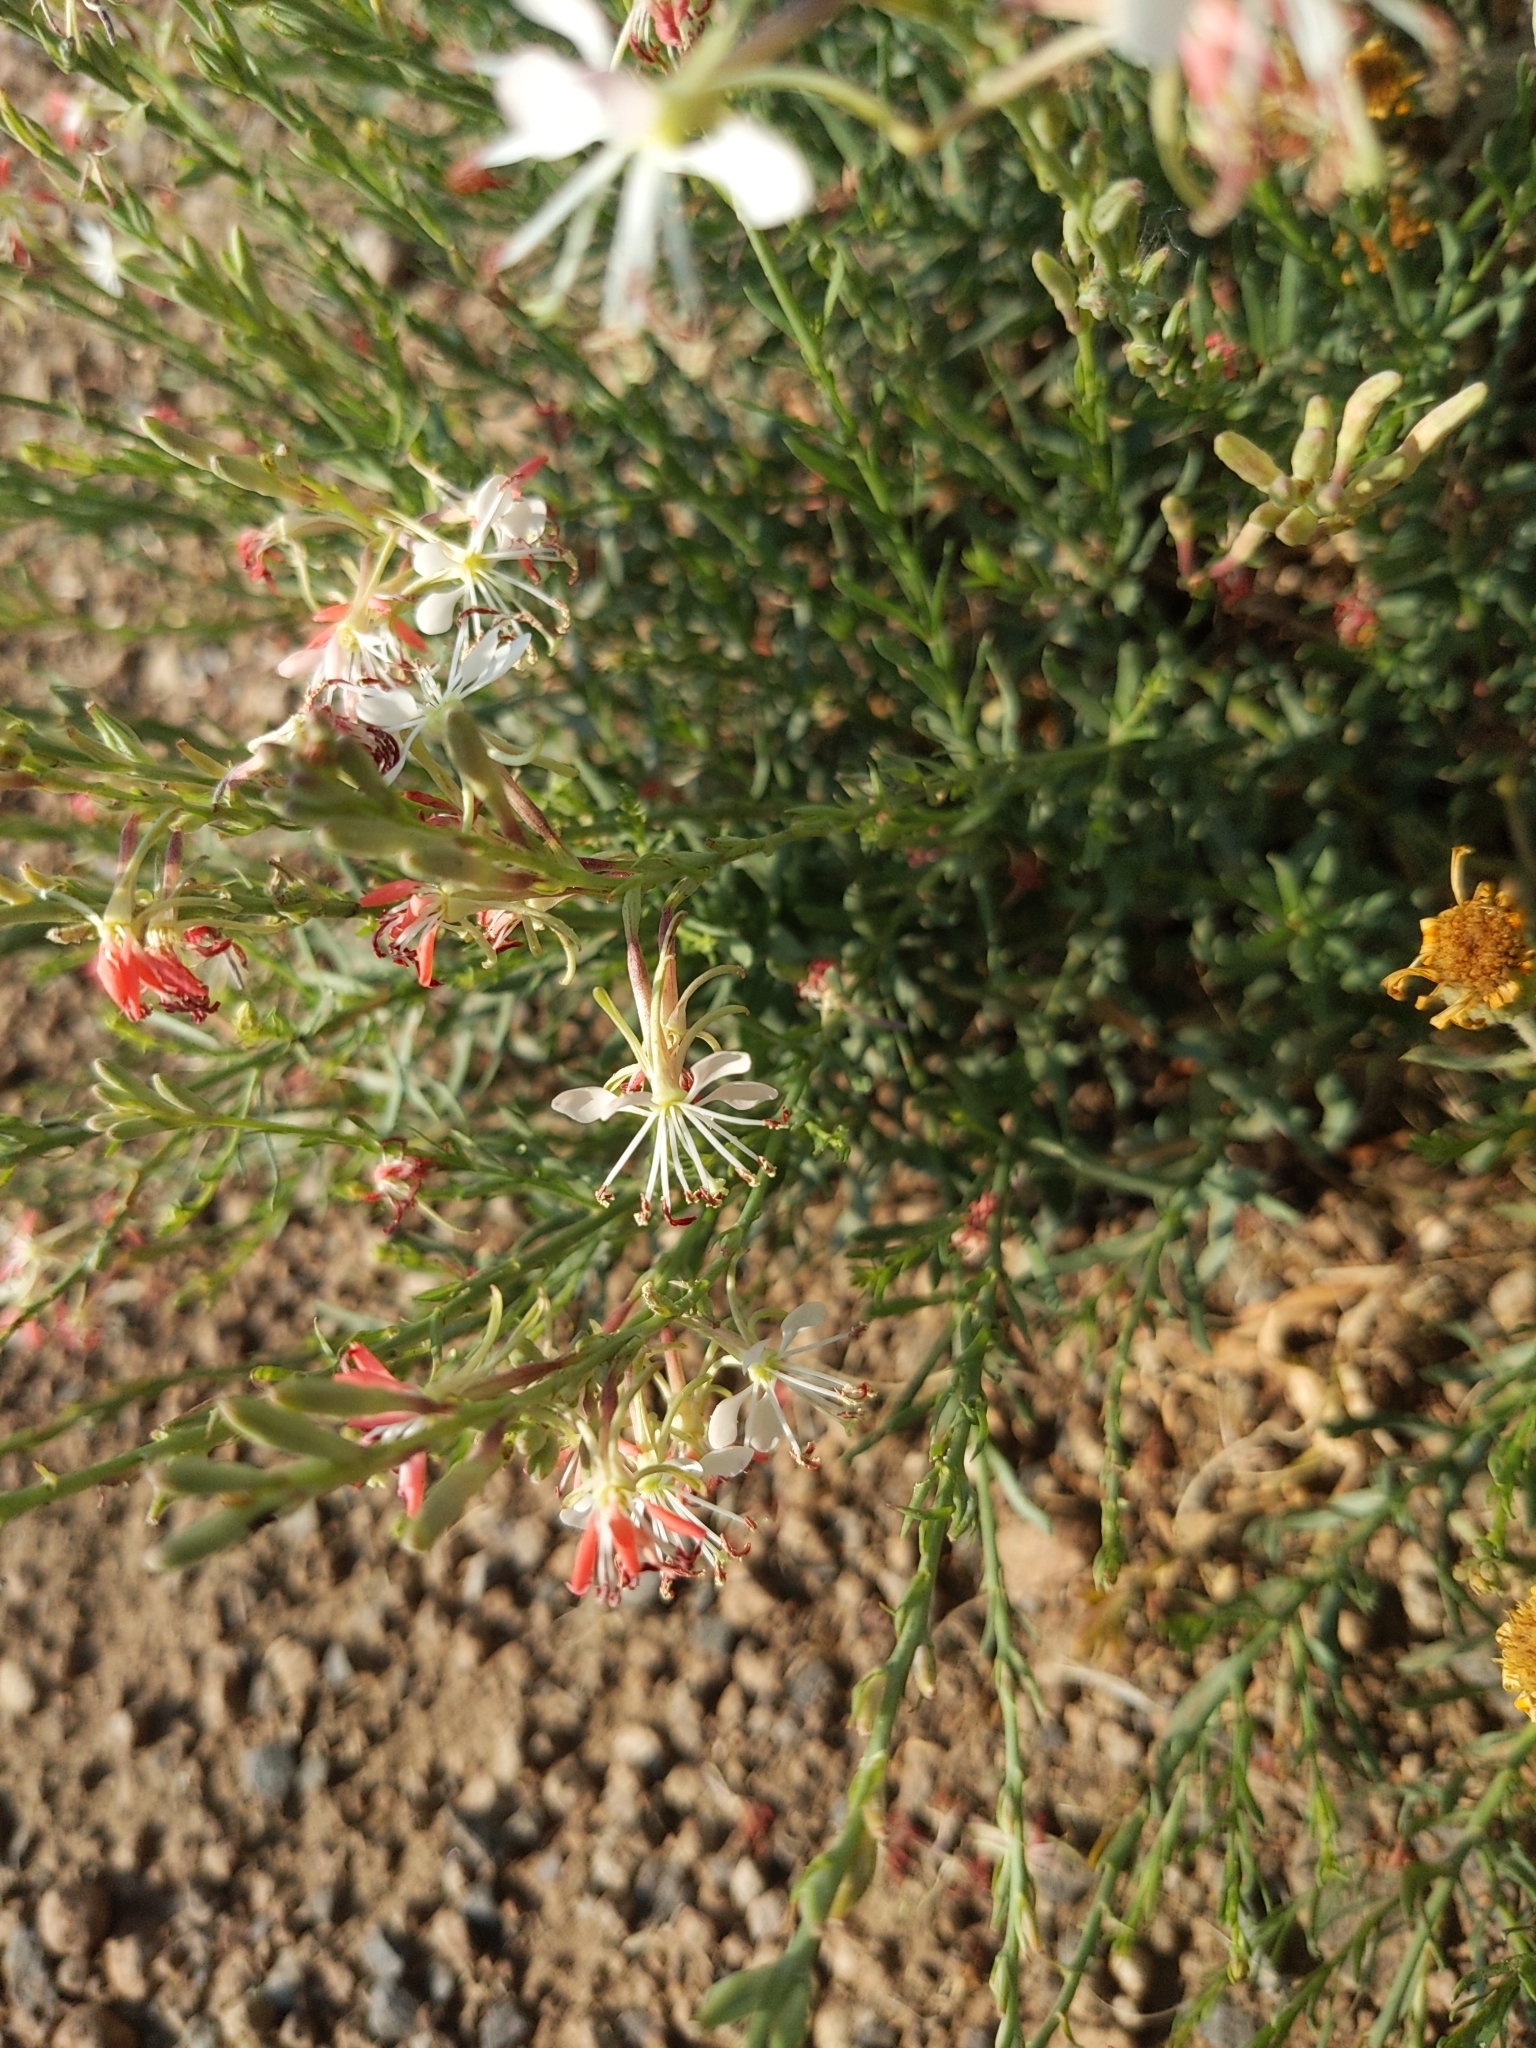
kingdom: Plantae
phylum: Tracheophyta
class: Magnoliopsida
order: Myrtales
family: Onagraceae
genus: Oenothera
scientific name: Oenothera suffrutescens
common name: Scarlet beeblossom
